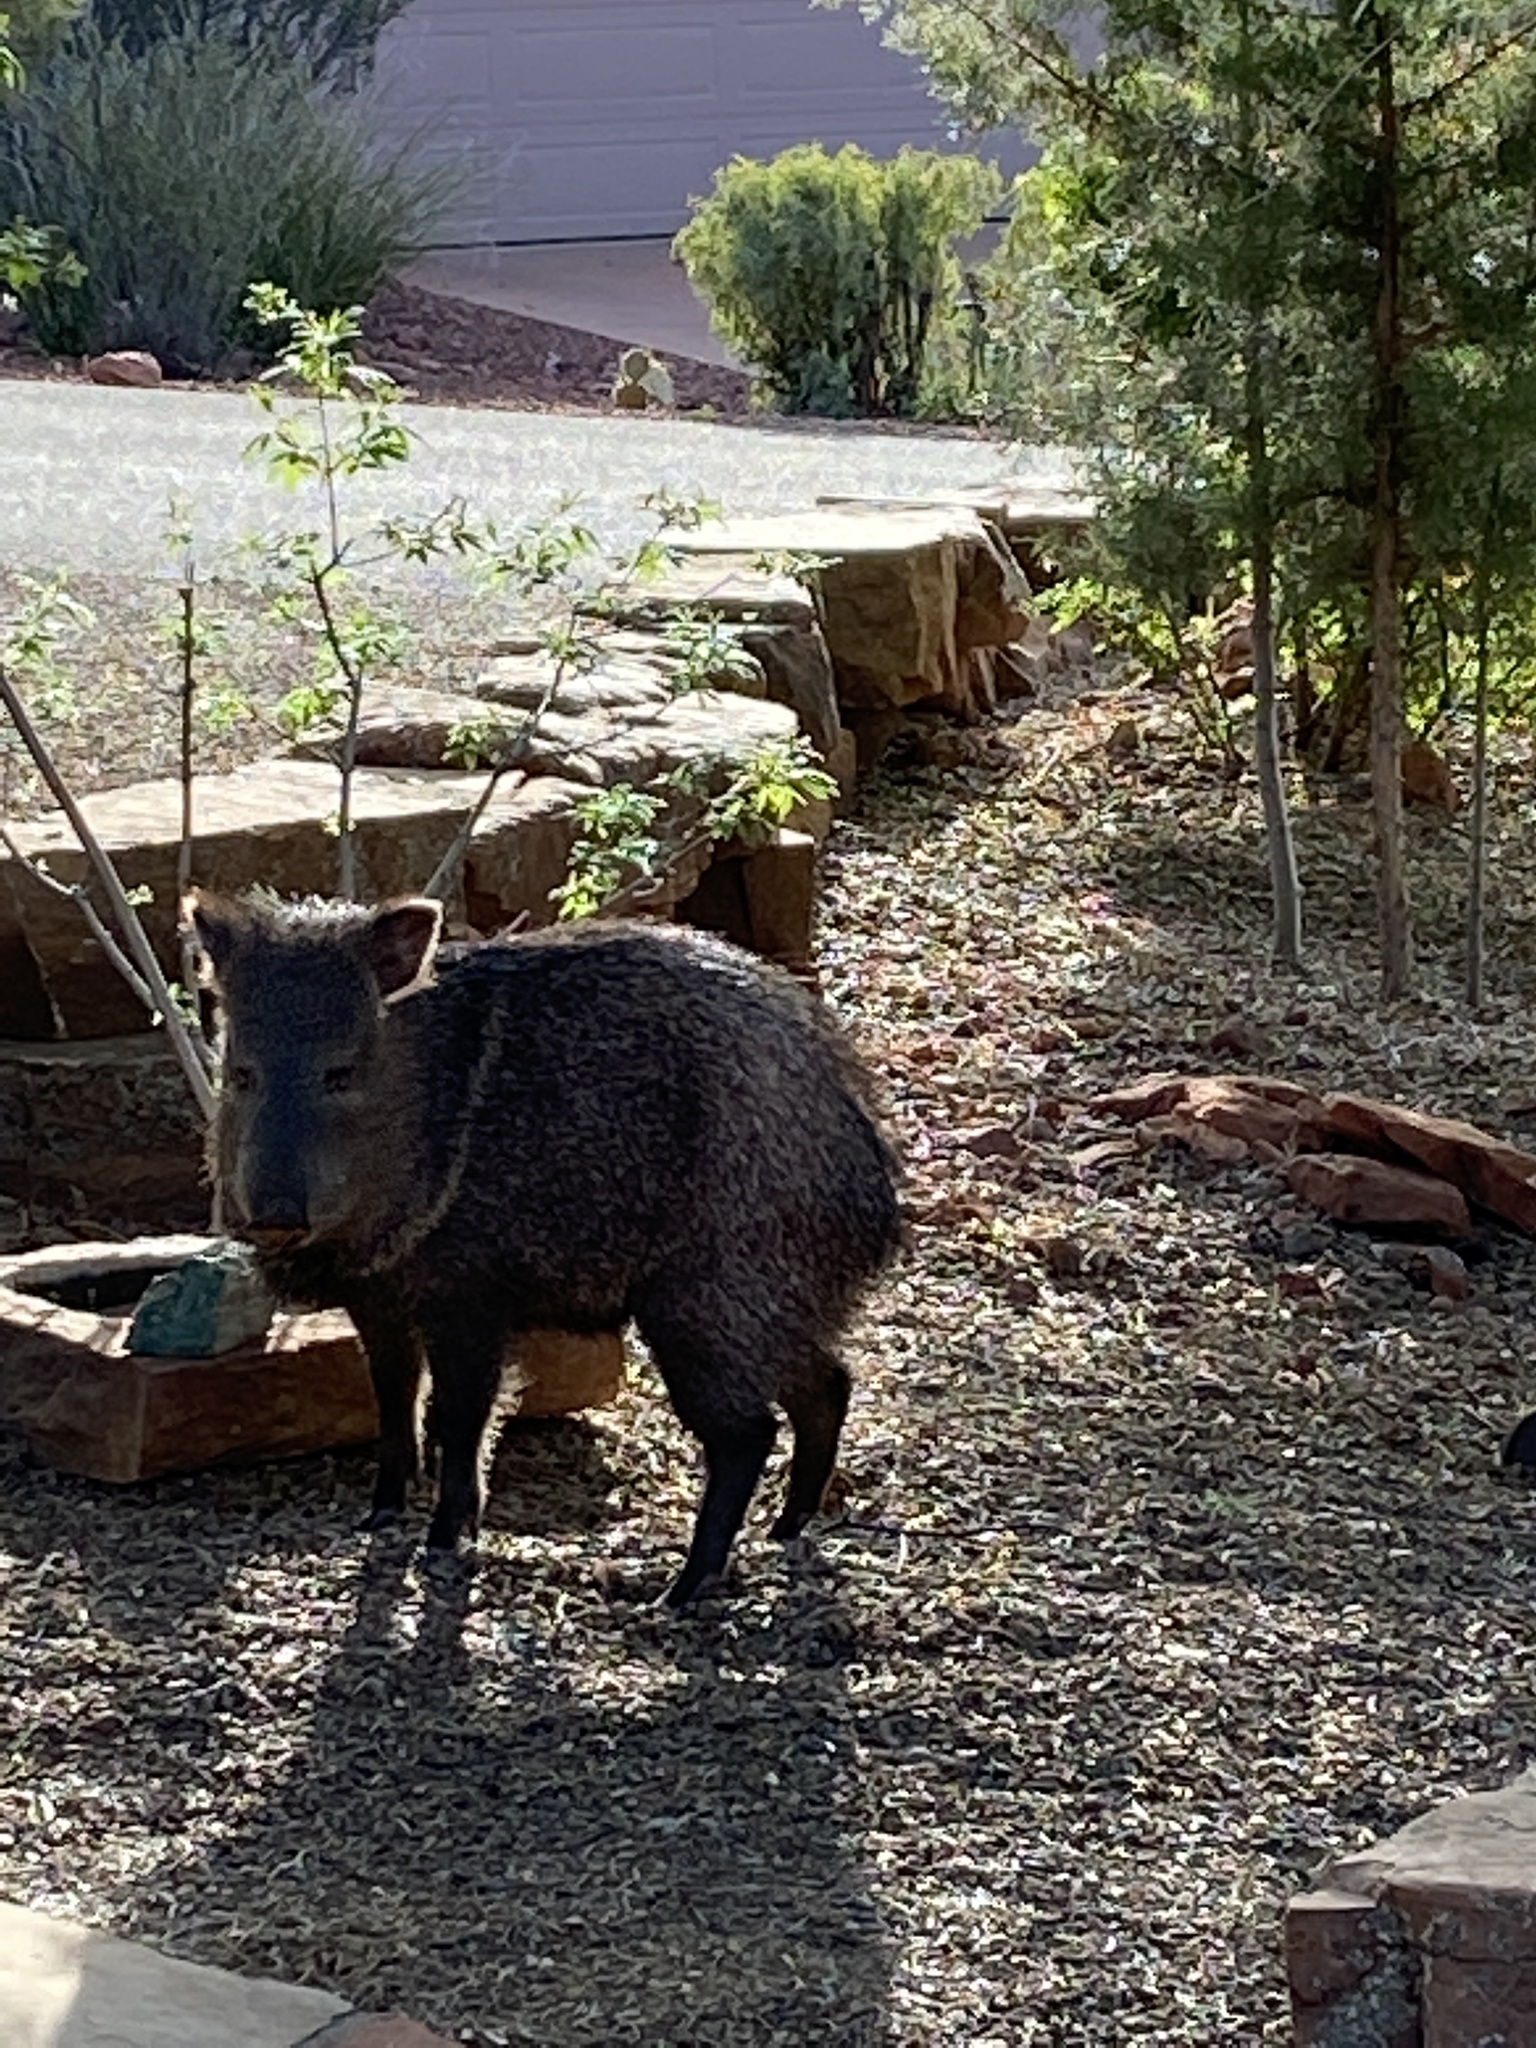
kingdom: Animalia
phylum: Chordata
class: Mammalia
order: Artiodactyla
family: Tayassuidae
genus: Pecari
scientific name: Pecari tajacu
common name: Collared peccary
